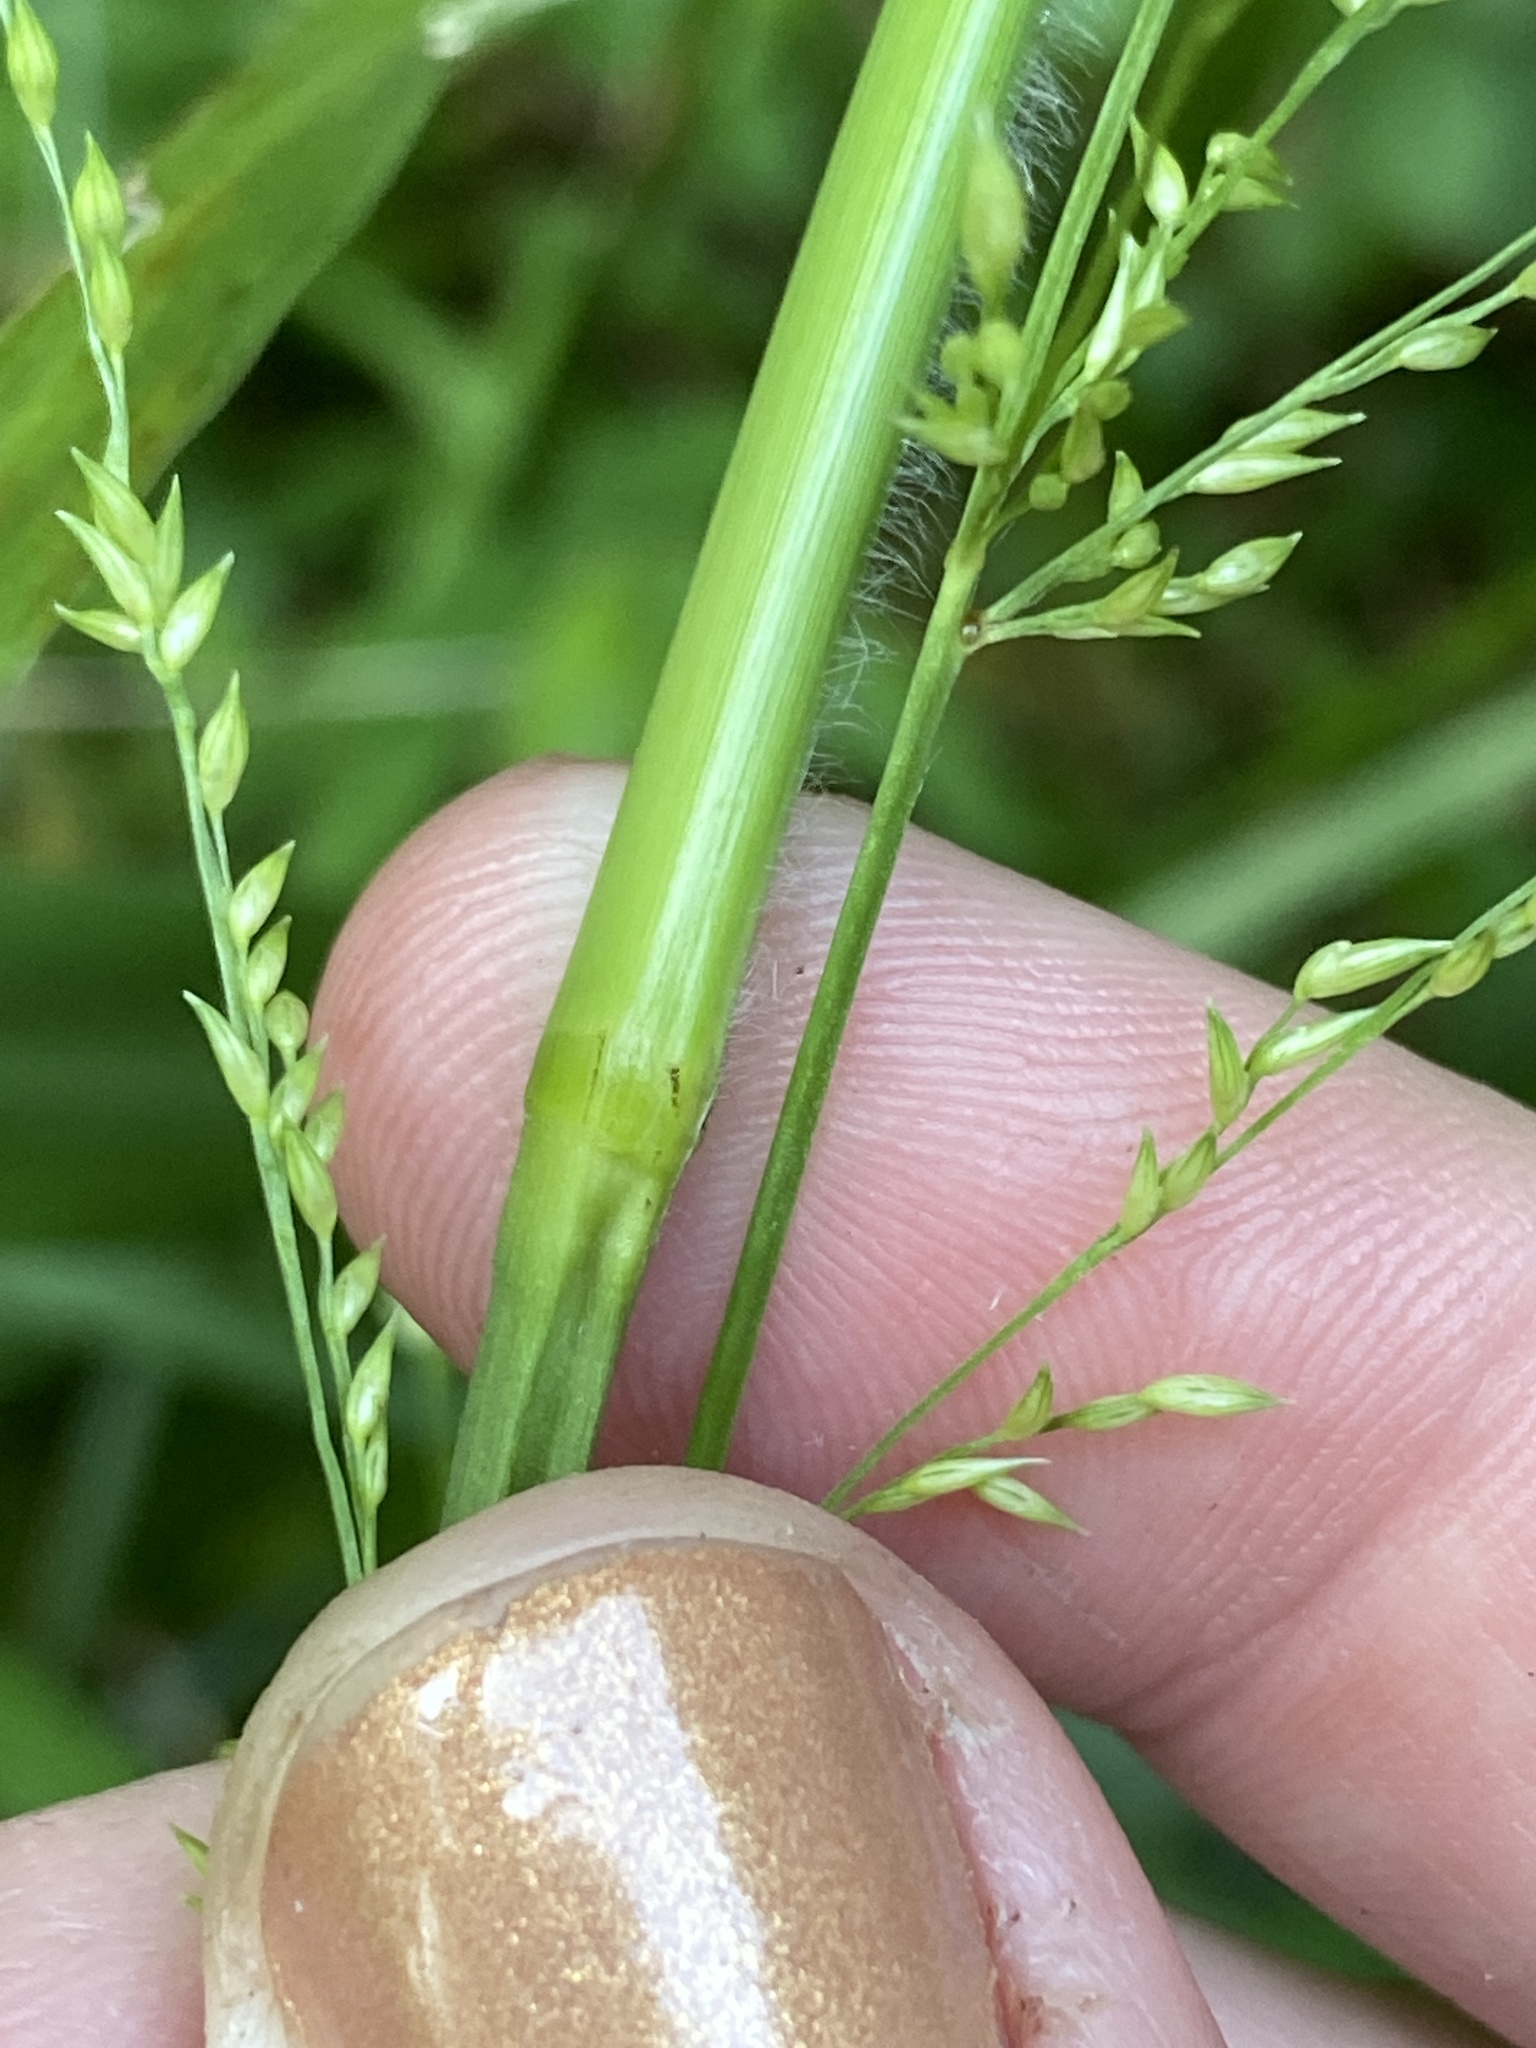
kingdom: Plantae
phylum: Tracheophyta
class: Liliopsida
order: Poales
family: Poaceae
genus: Coleataenia
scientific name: Coleataenia anceps
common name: Beaked panic grass
